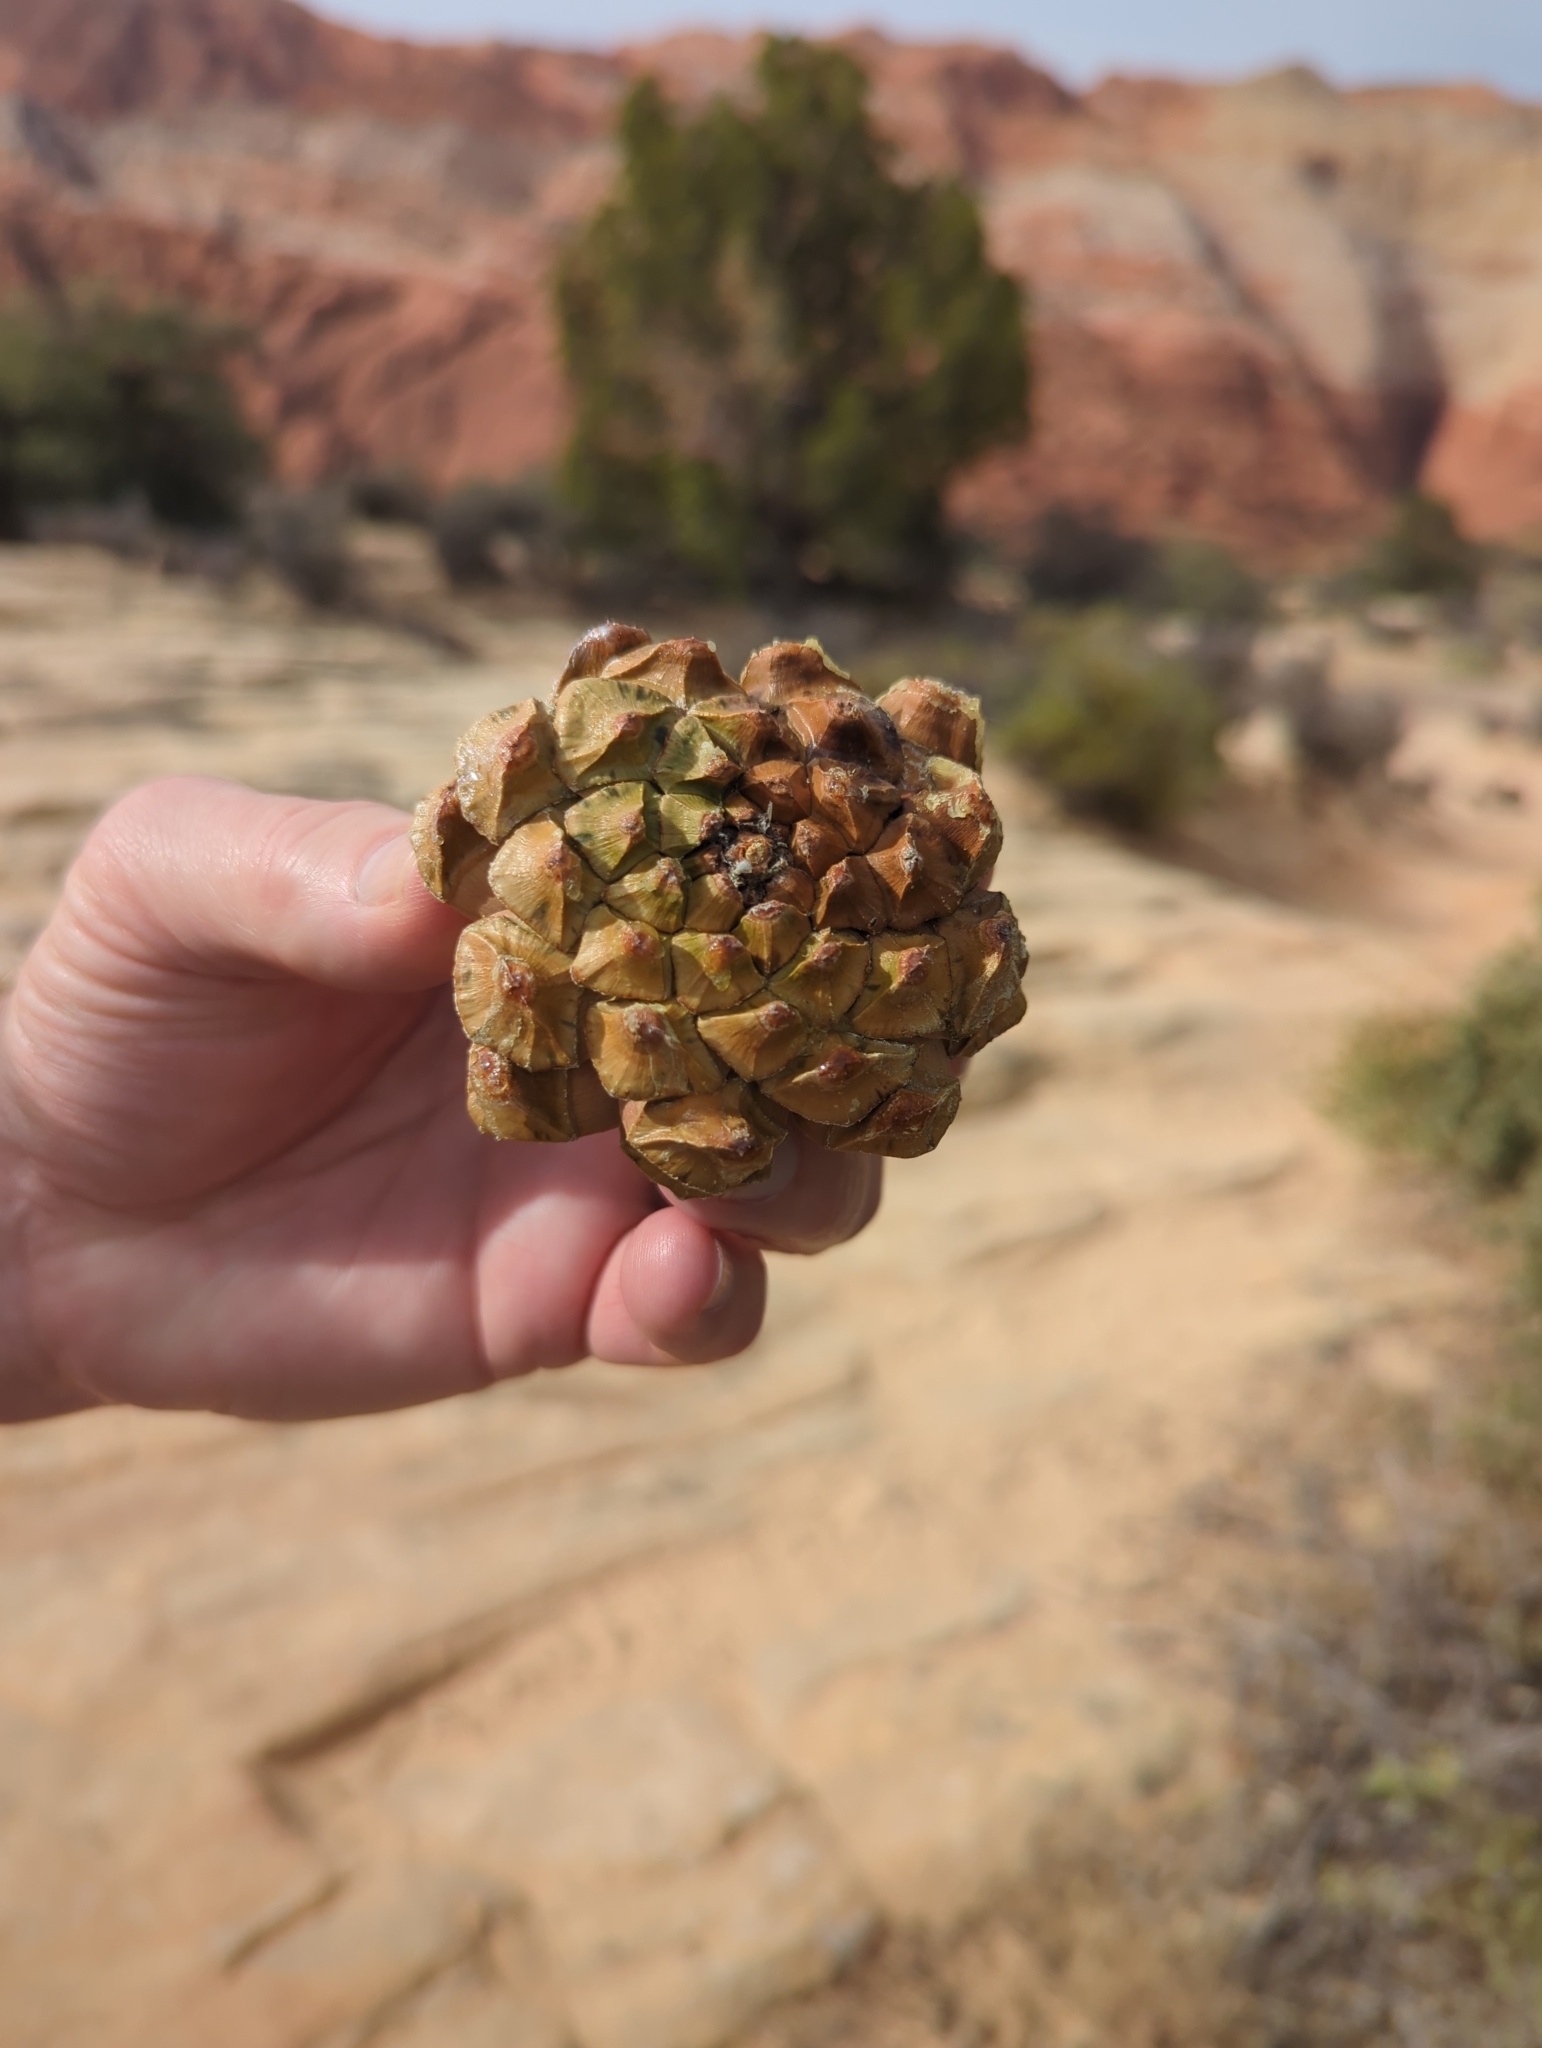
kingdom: Plantae
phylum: Tracheophyta
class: Pinopsida
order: Pinales
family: Pinaceae
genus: Pinus
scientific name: Pinus monophylla
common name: One-leaved nut pine
